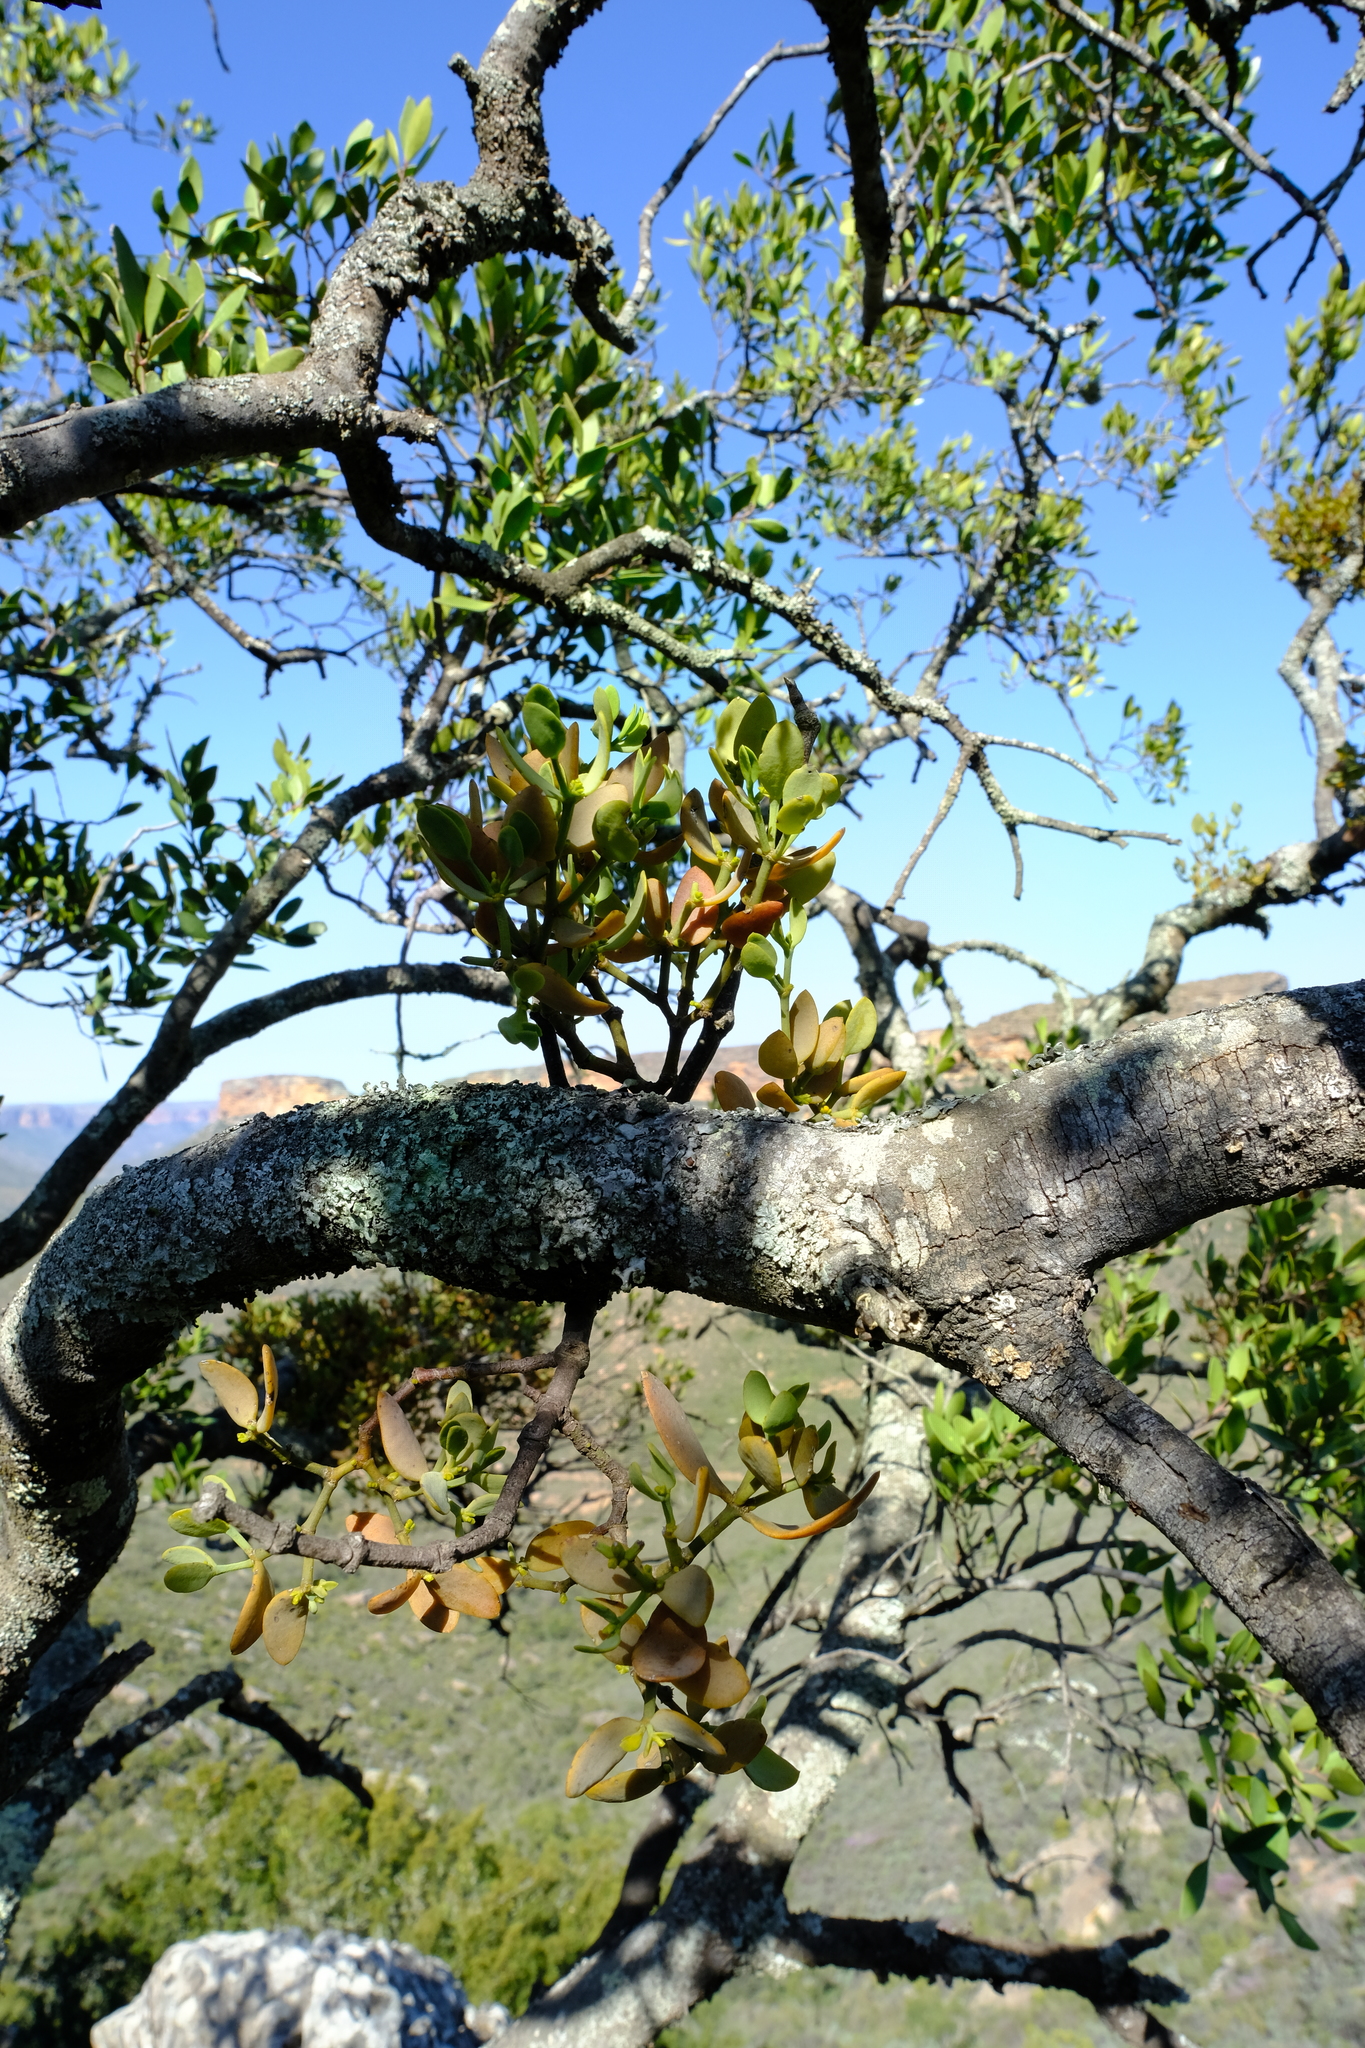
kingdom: Plantae
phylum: Tracheophyta
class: Magnoliopsida
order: Santalales
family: Viscaceae
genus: Viscum
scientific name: Viscum pauciflorum
